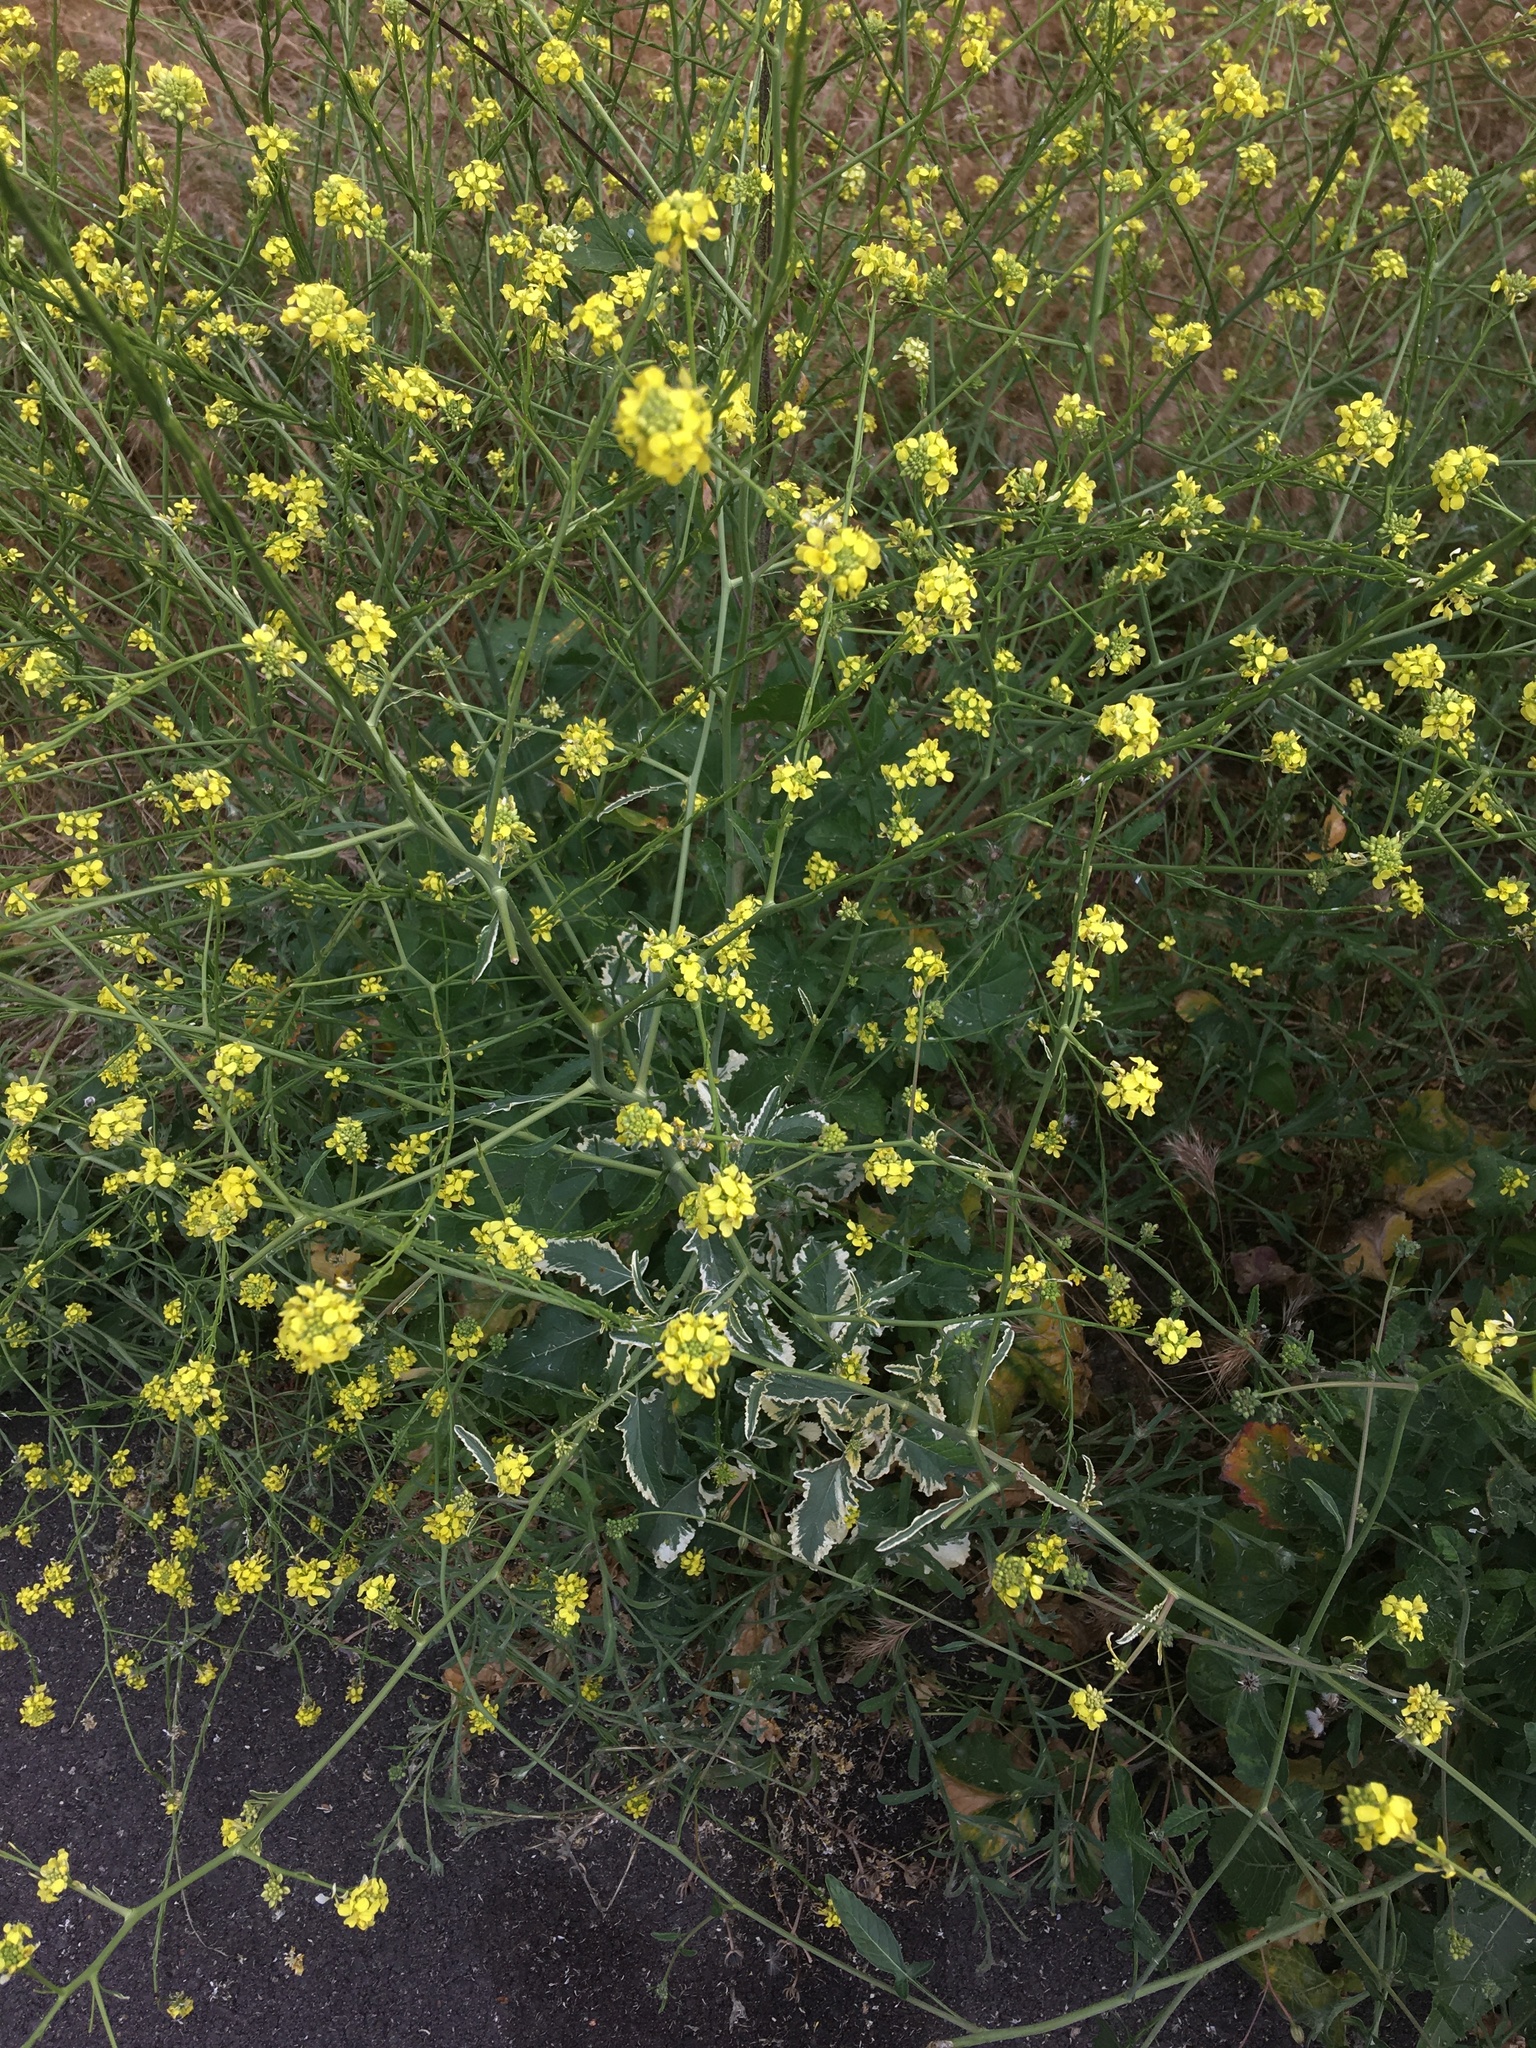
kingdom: Plantae
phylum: Tracheophyta
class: Magnoliopsida
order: Brassicales
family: Brassicaceae
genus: Hirschfeldia
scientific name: Hirschfeldia incana
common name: Hoary mustard
